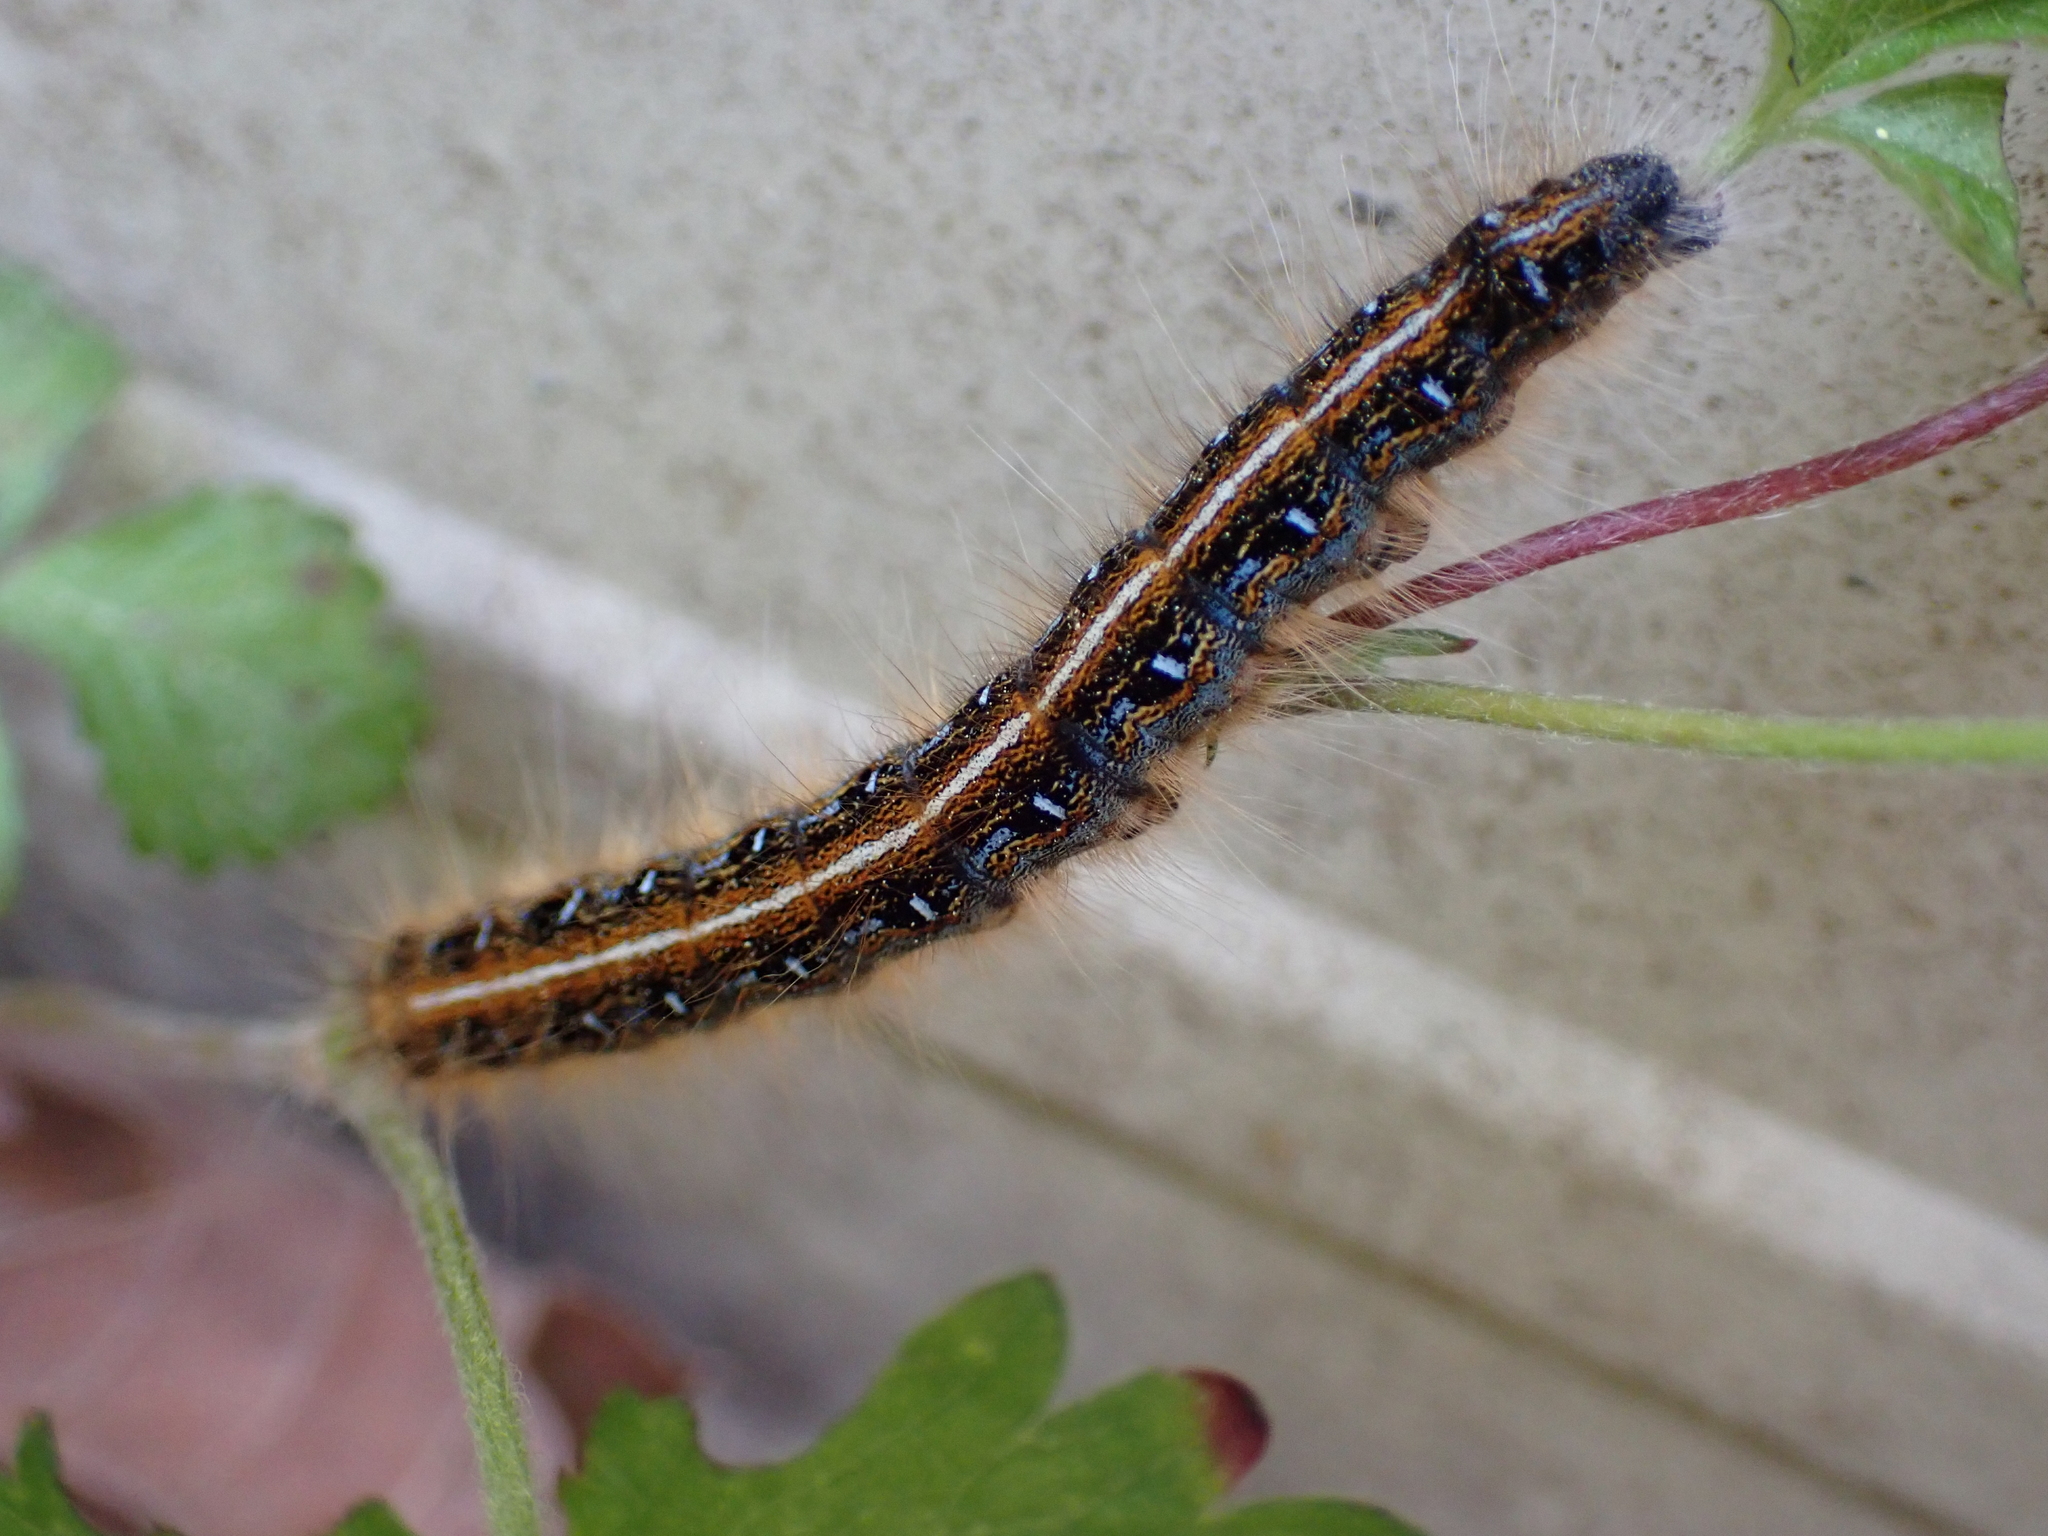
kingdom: Animalia
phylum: Arthropoda
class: Insecta
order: Lepidoptera
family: Lasiocampidae
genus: Malacosoma
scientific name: Malacosoma americana
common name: Eastern tent caterpillar moth
